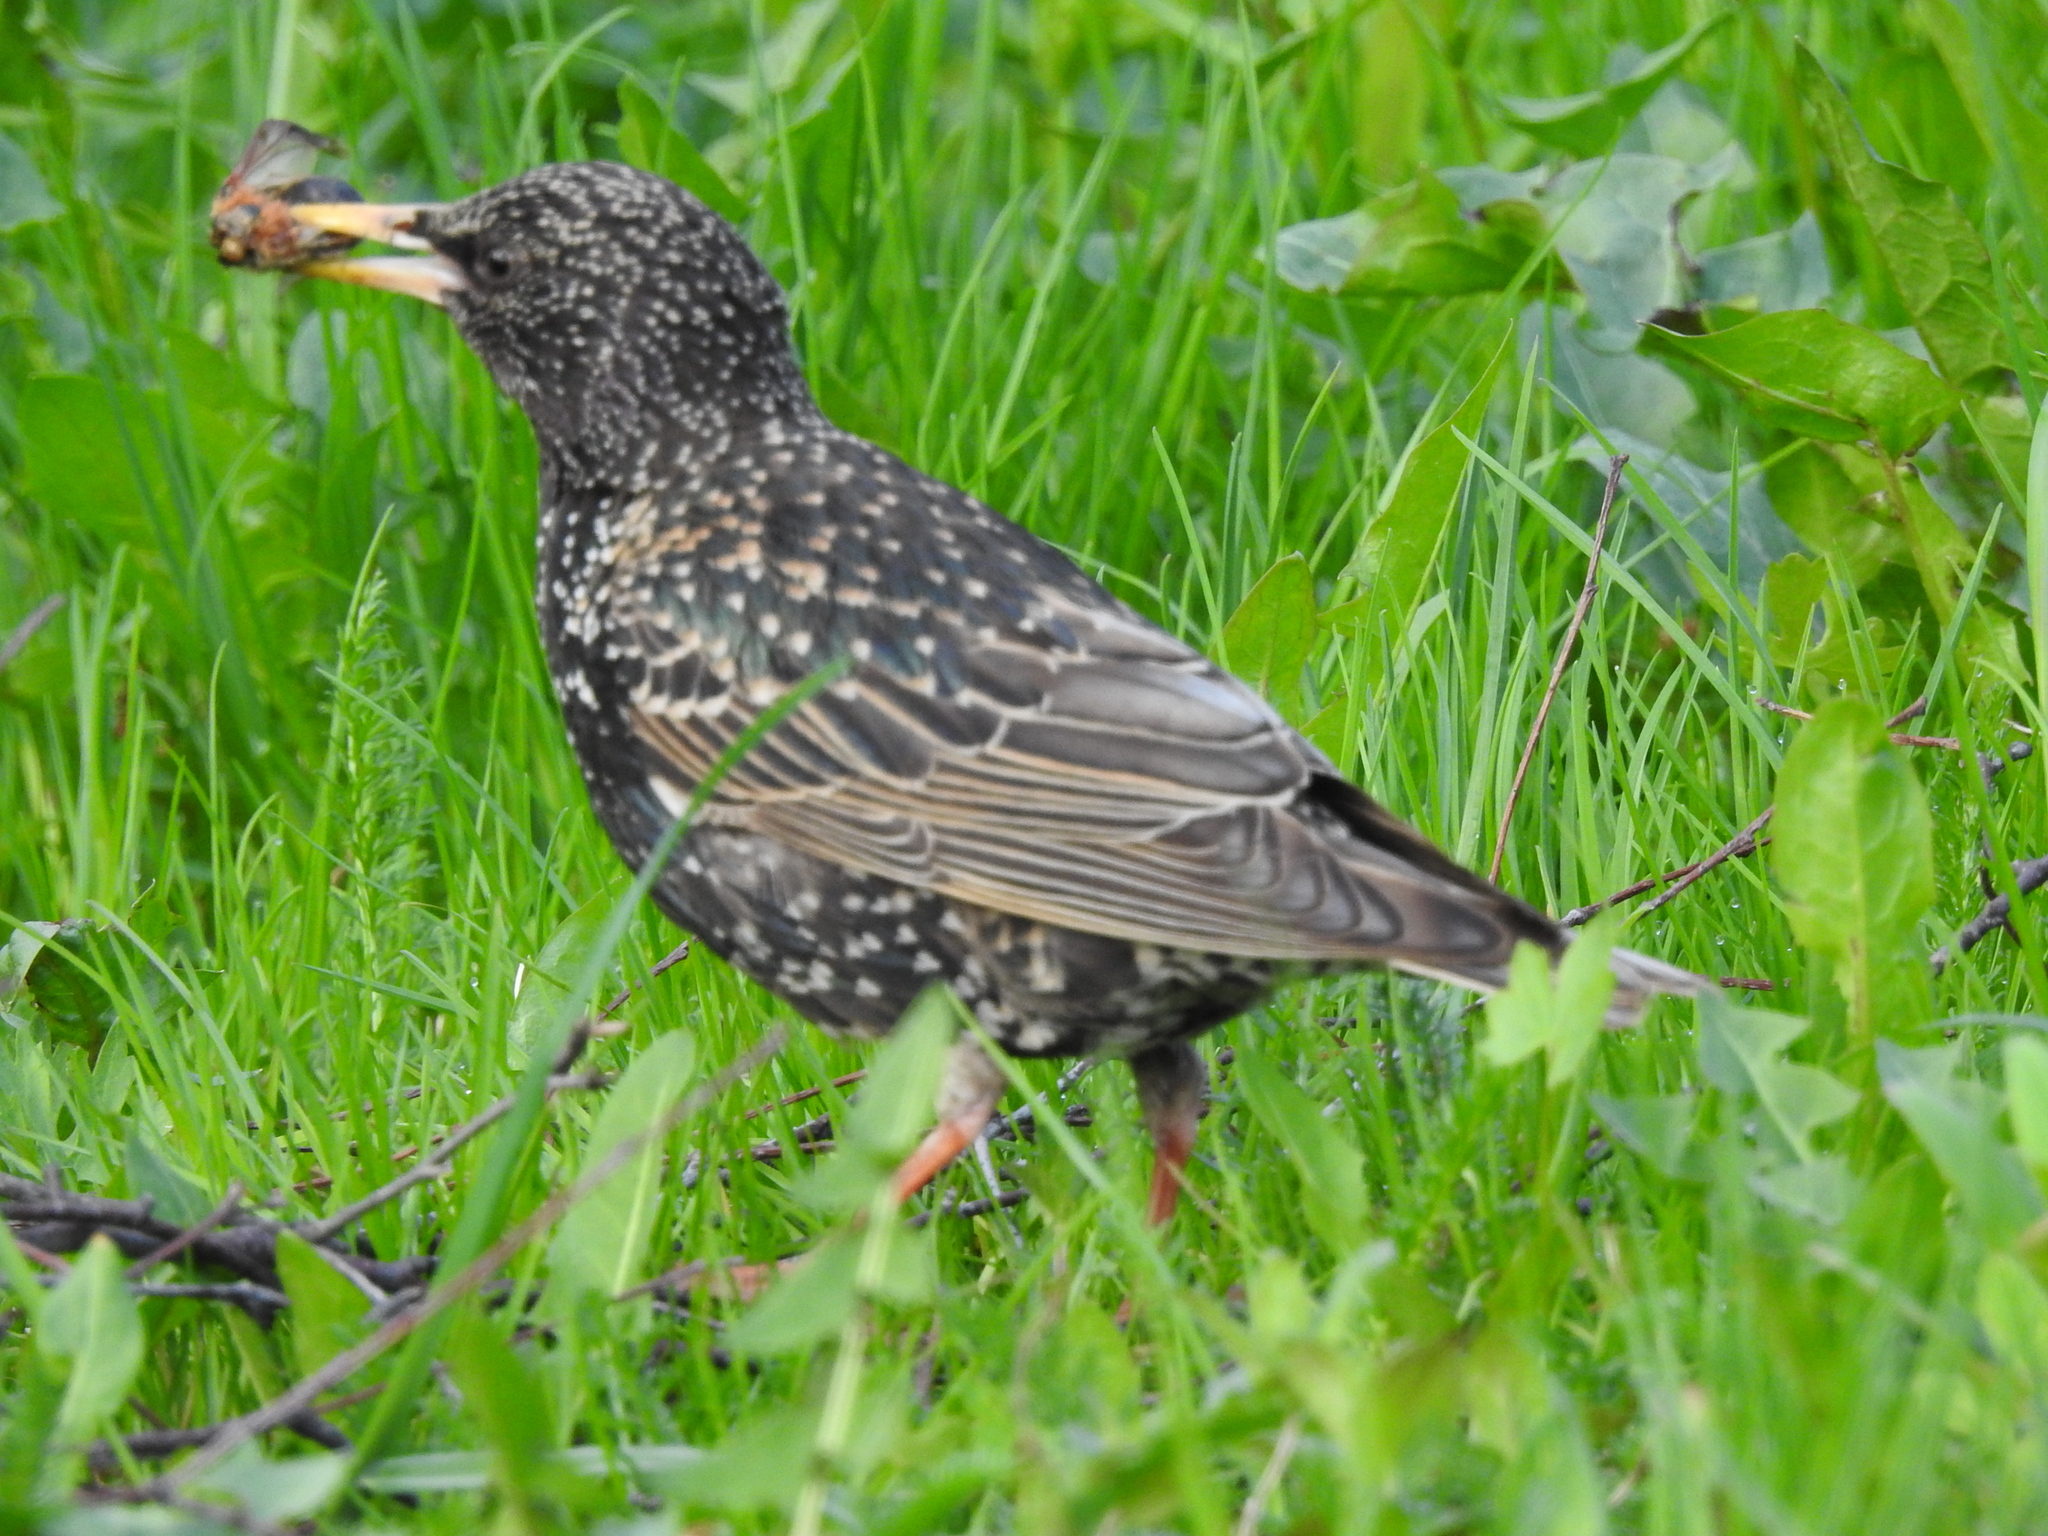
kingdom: Animalia
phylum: Chordata
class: Aves
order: Passeriformes
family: Sturnidae
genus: Sturnus
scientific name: Sturnus vulgaris
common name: Common starling
